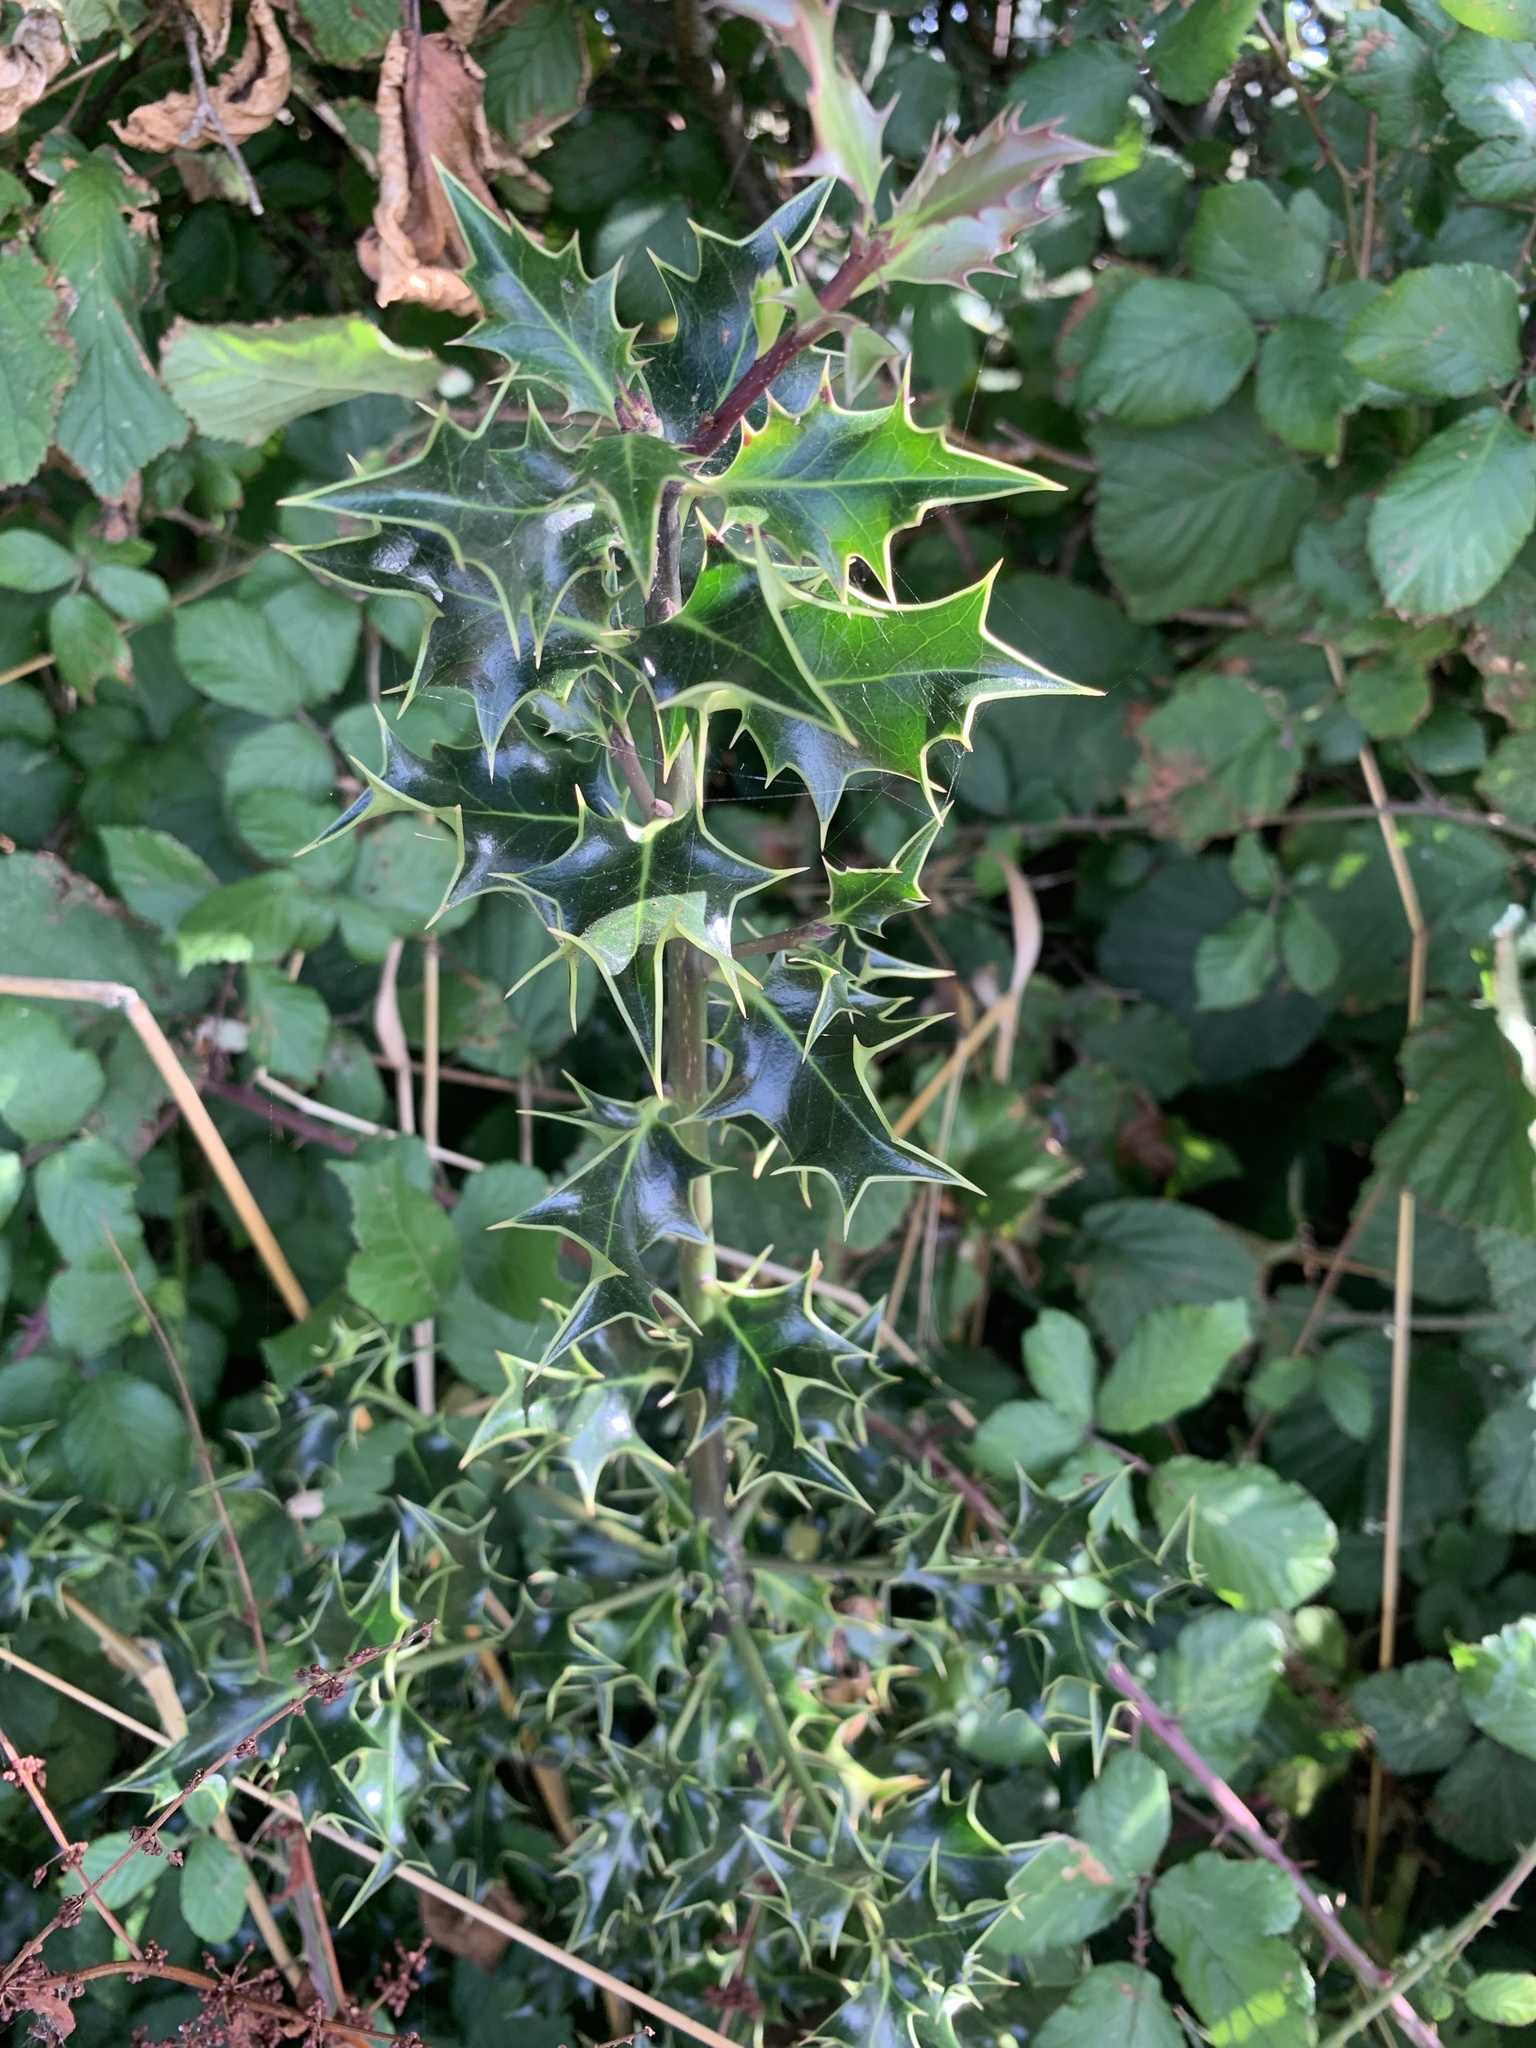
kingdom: Plantae
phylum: Tracheophyta
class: Magnoliopsida
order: Aquifoliales
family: Aquifoliaceae
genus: Ilex
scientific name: Ilex aquifolium
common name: English holly
